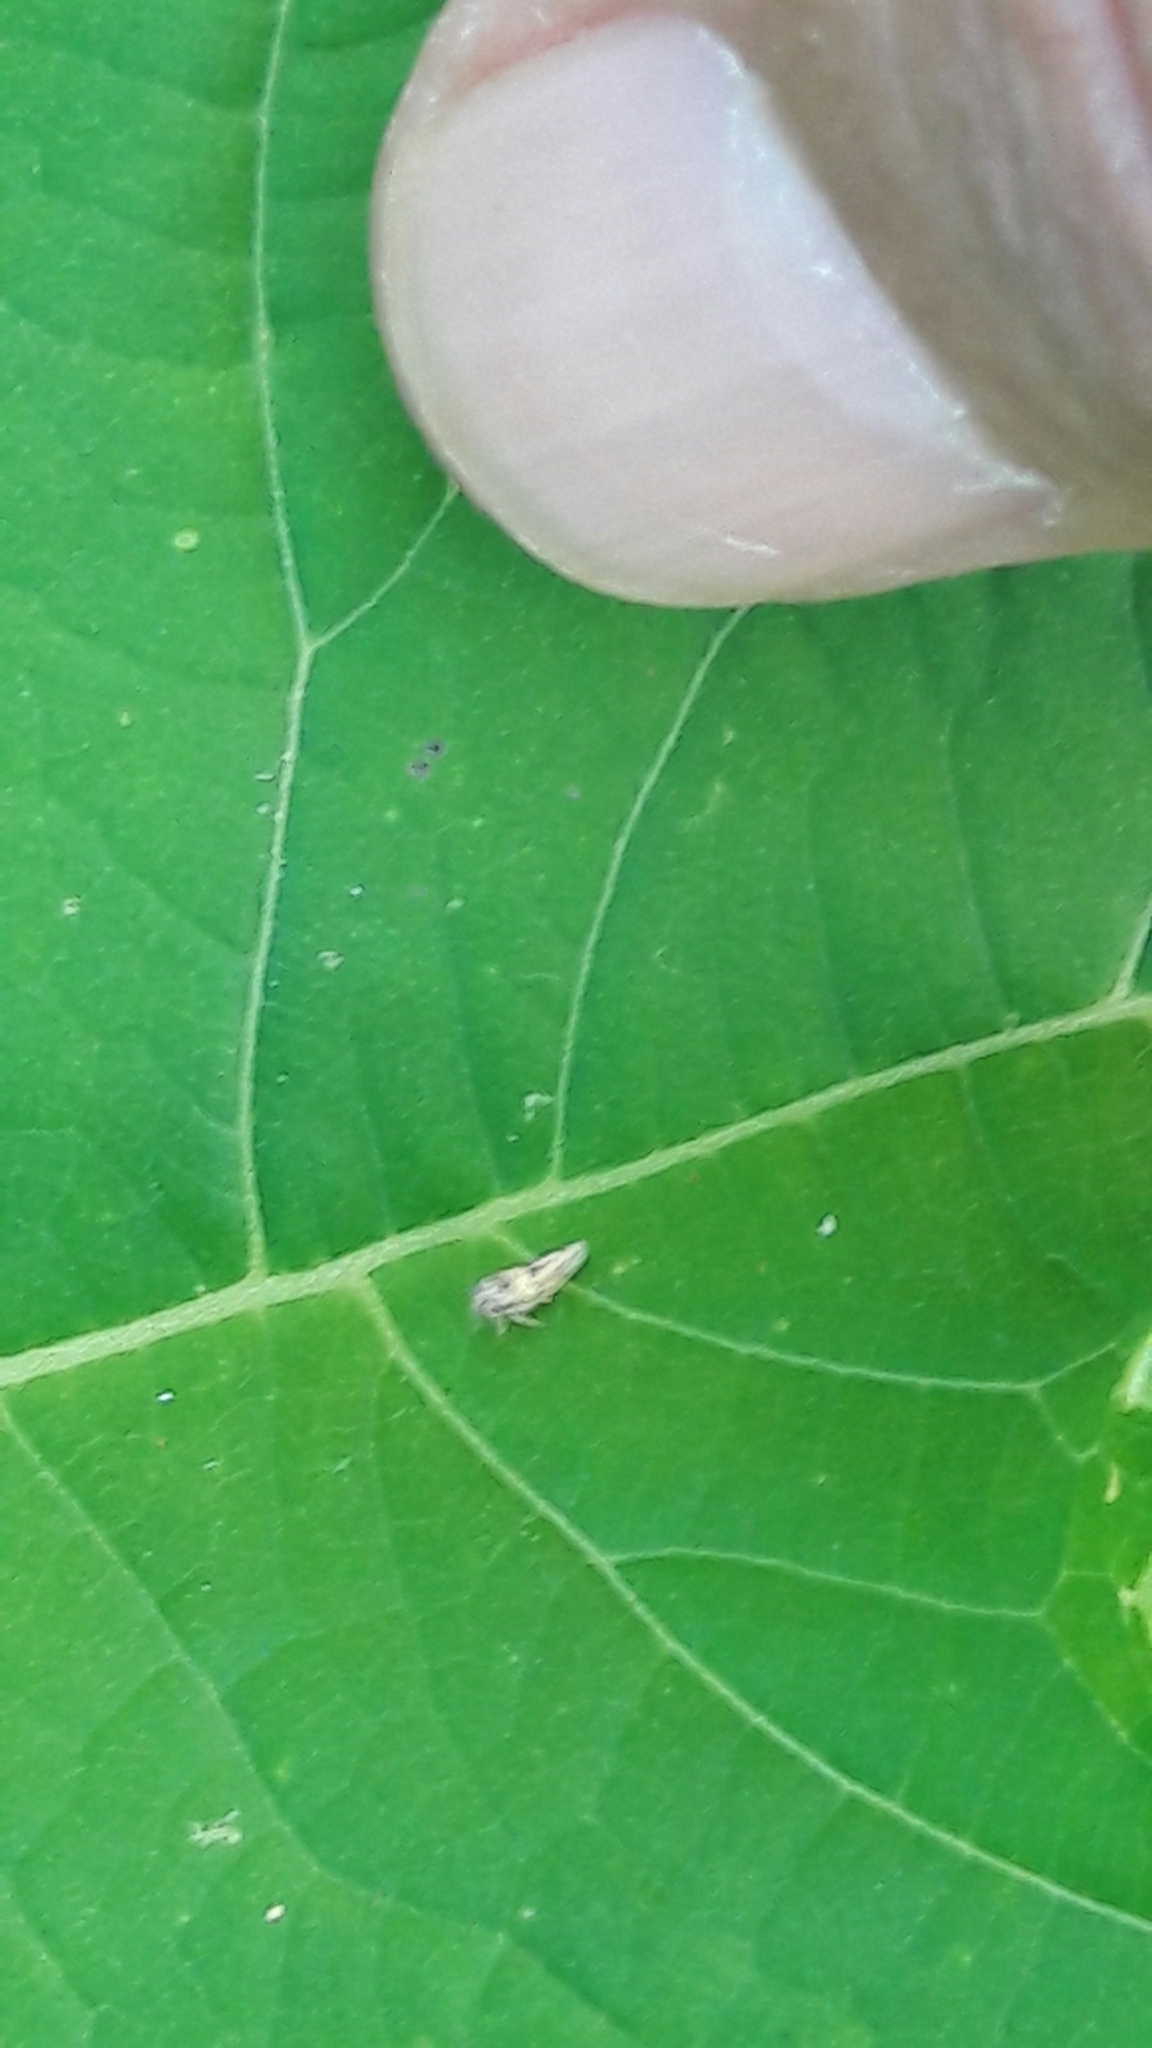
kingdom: Animalia
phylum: Arthropoda
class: Insecta
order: Hemiptera
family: Cicadellidae
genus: Agallia
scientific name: Agallia albidula
